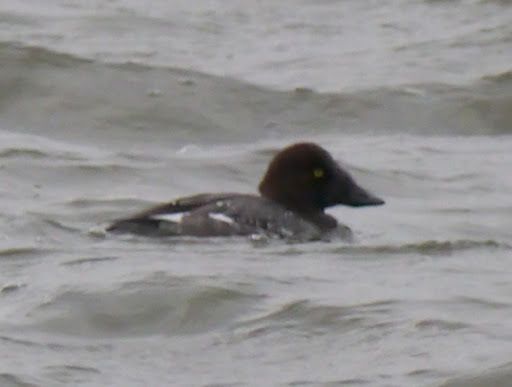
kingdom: Animalia
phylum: Chordata
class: Aves
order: Anseriformes
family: Anatidae
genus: Bucephala
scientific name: Bucephala clangula
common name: Common goldeneye
